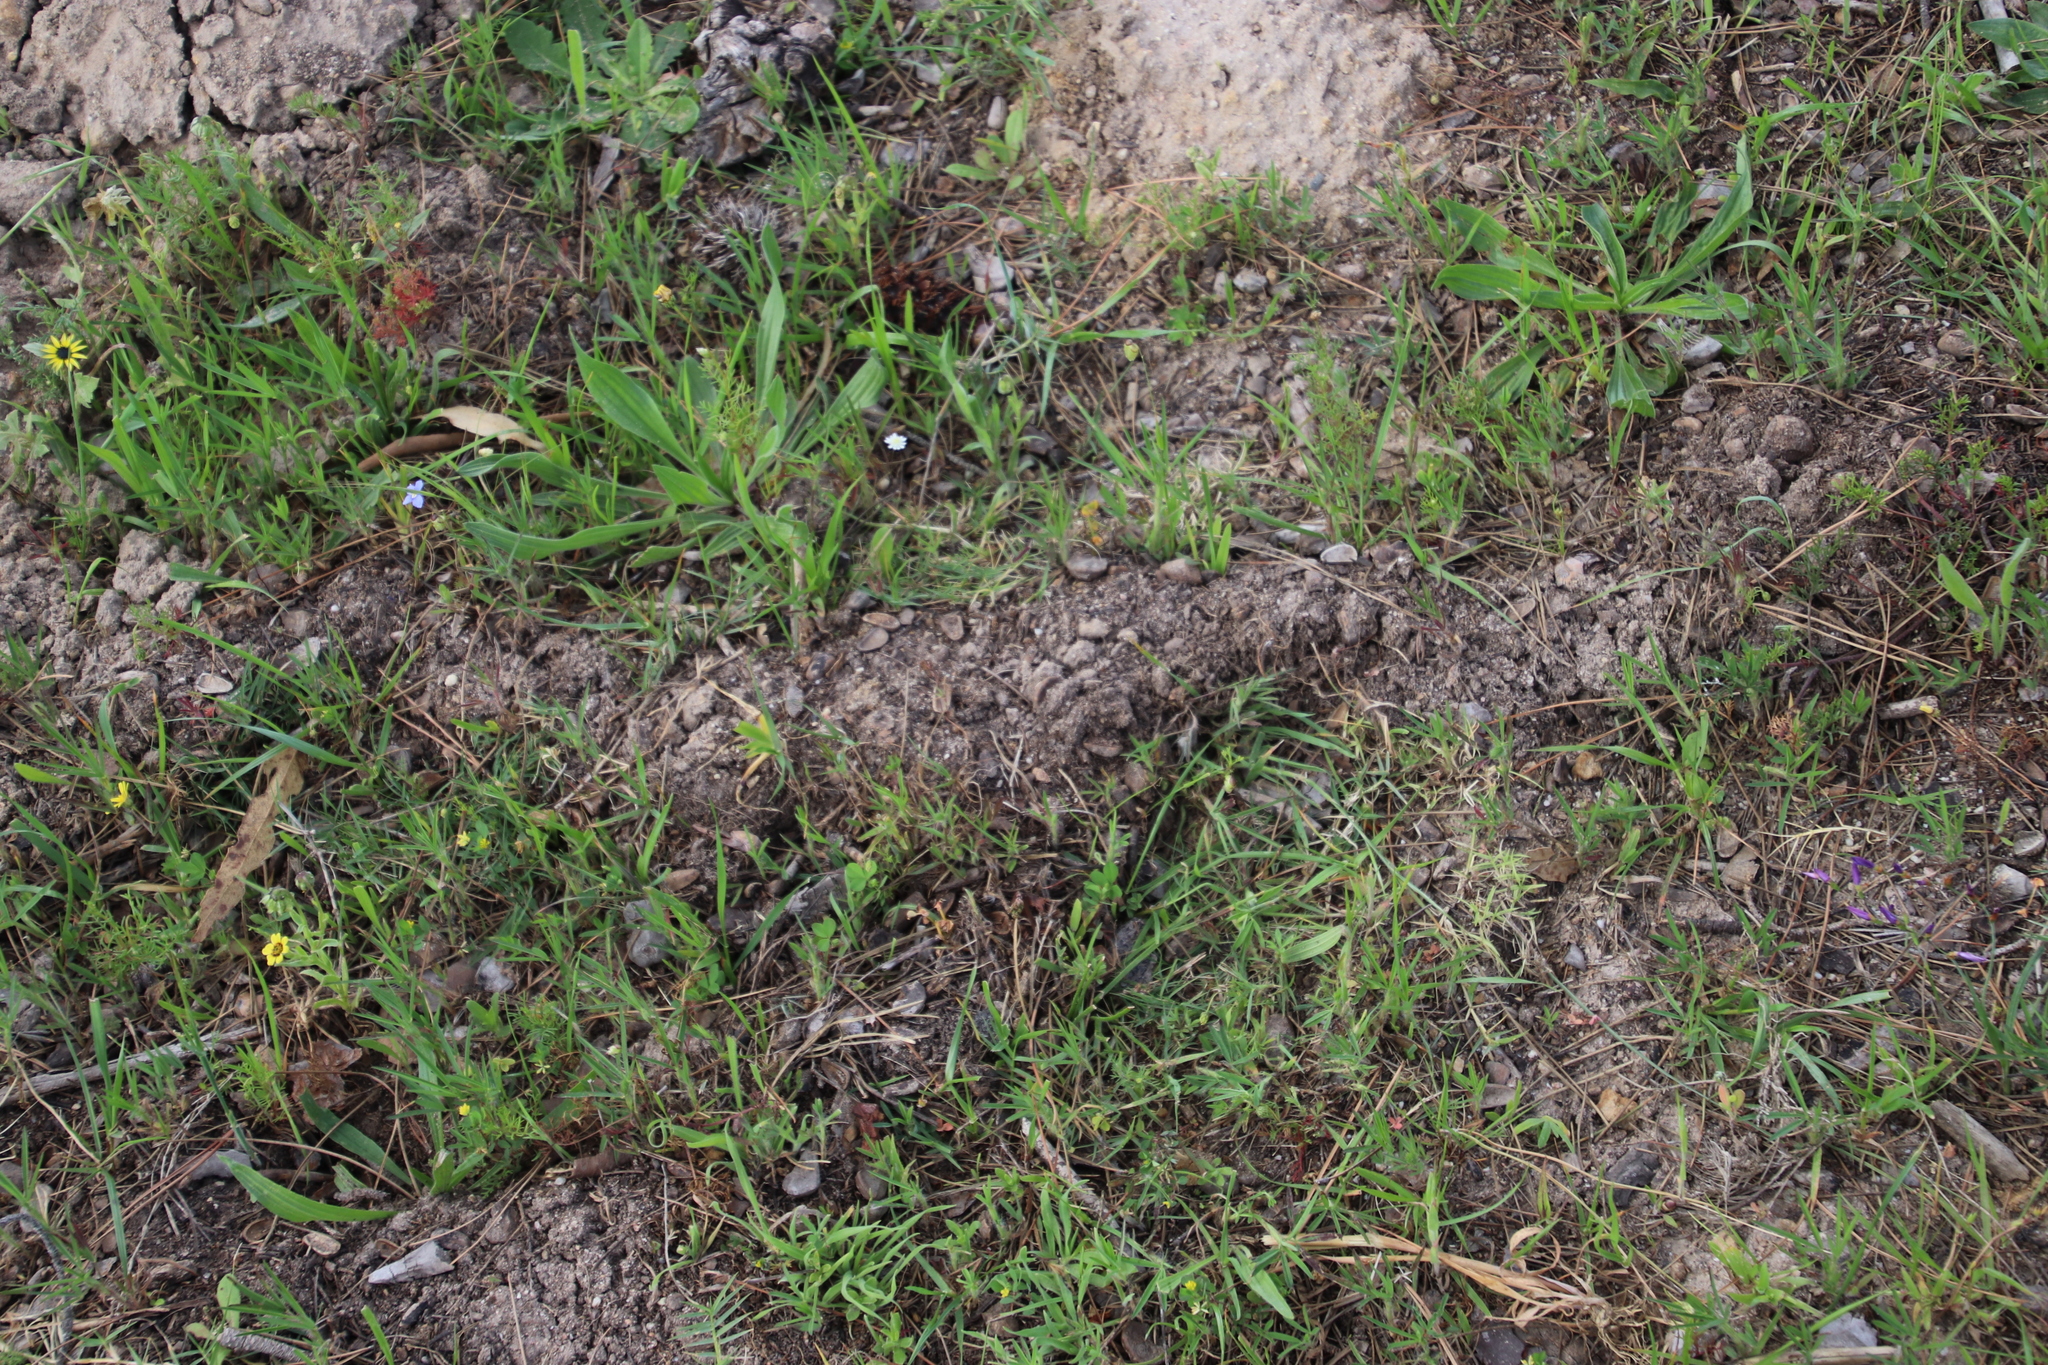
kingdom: Animalia
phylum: Chordata
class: Mammalia
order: Afrosoricida
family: Chrysochloridae
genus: Chrysochloris
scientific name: Chrysochloris asiatica
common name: Cape golden mole
